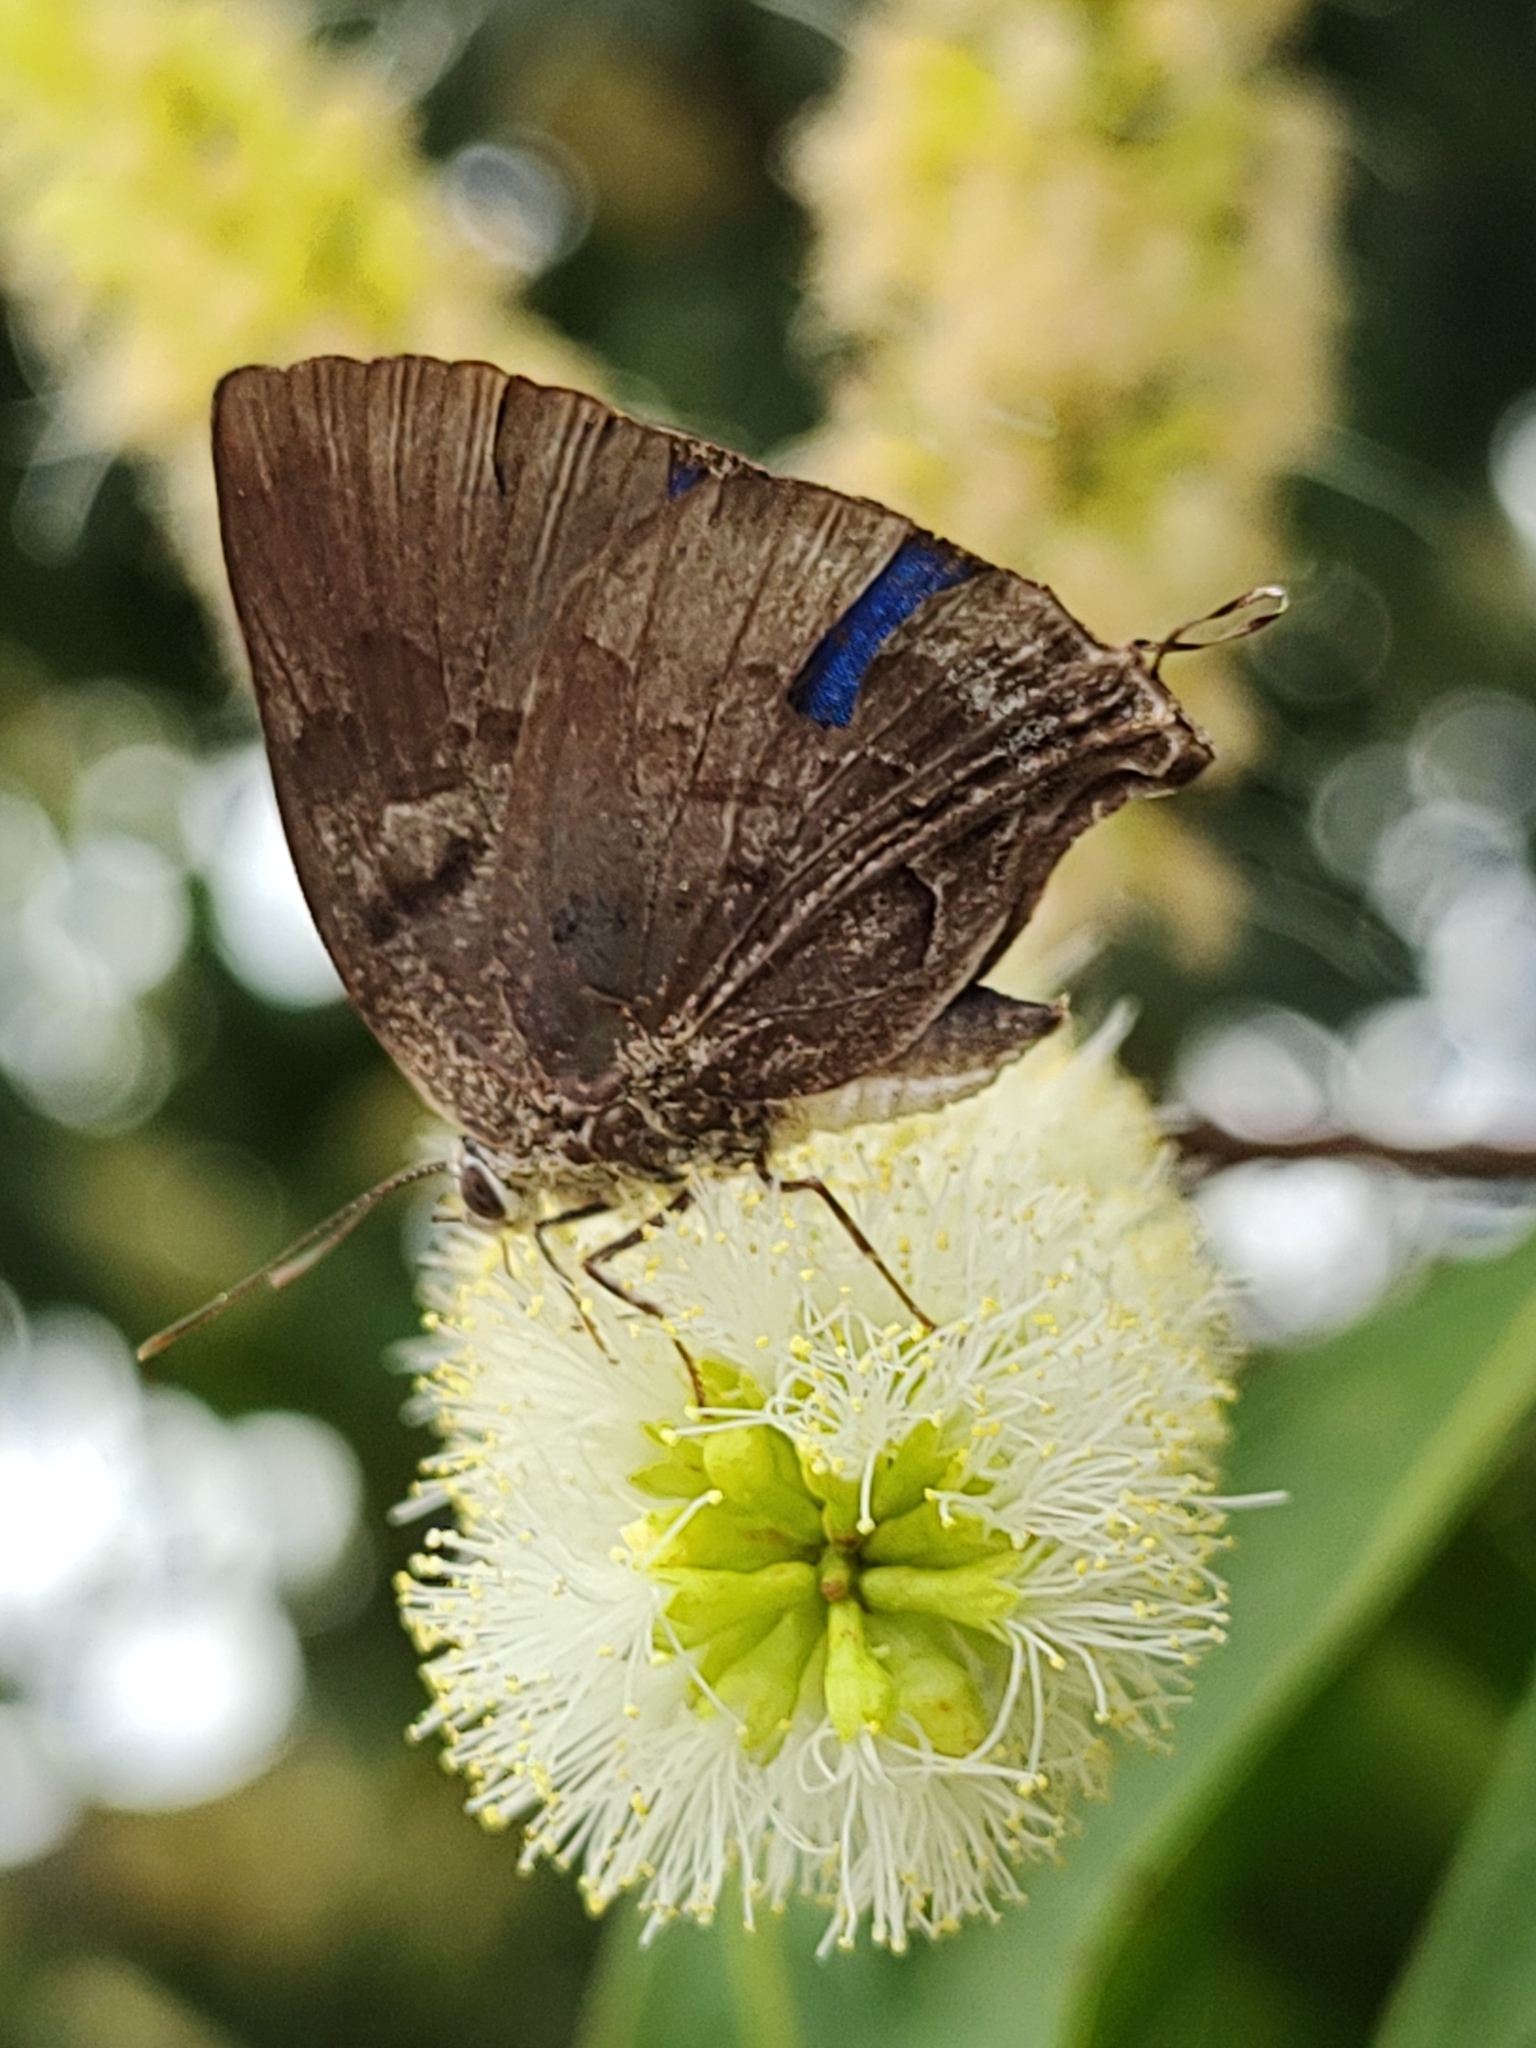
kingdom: Animalia
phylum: Arthropoda
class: Insecta
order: Lepidoptera
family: Lycaenidae
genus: Panthiades
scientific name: Panthiades hebraeus
